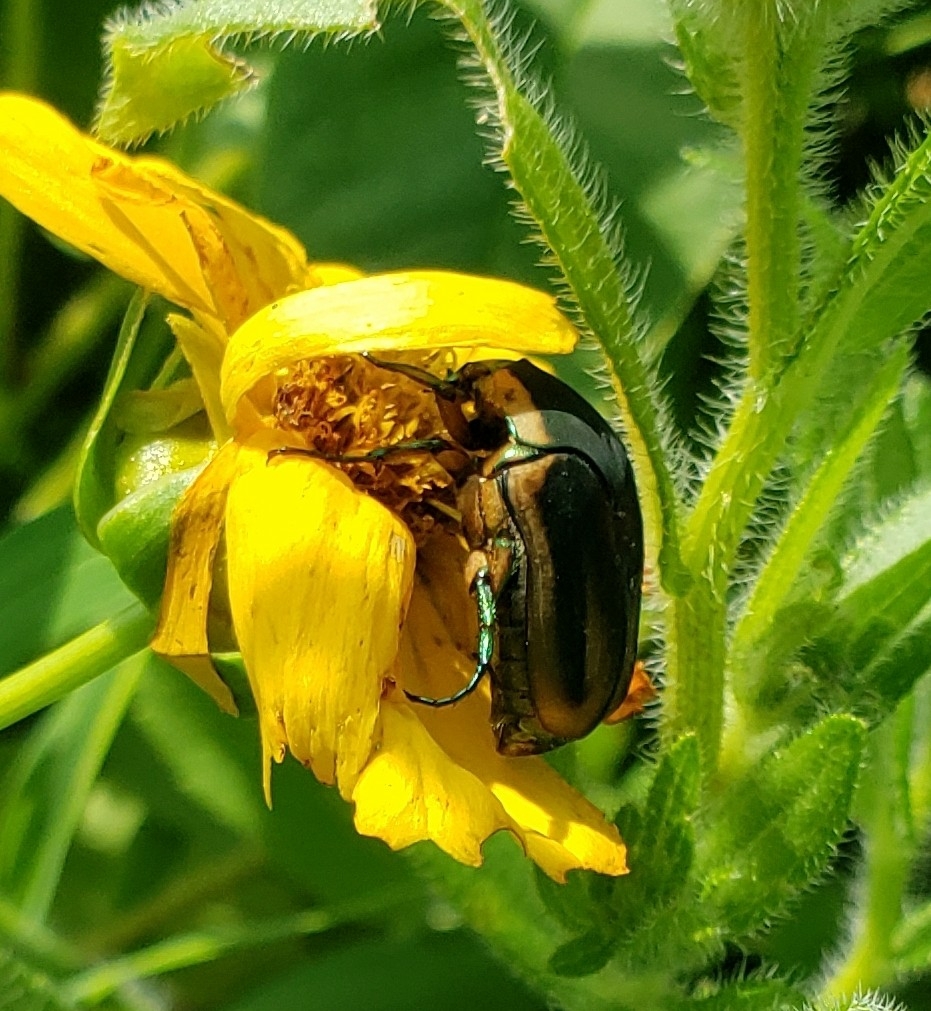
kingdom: Animalia
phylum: Arthropoda
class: Insecta
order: Coleoptera
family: Scarabaeidae
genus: Cotinis
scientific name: Cotinis nitida
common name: Common green june beetle
